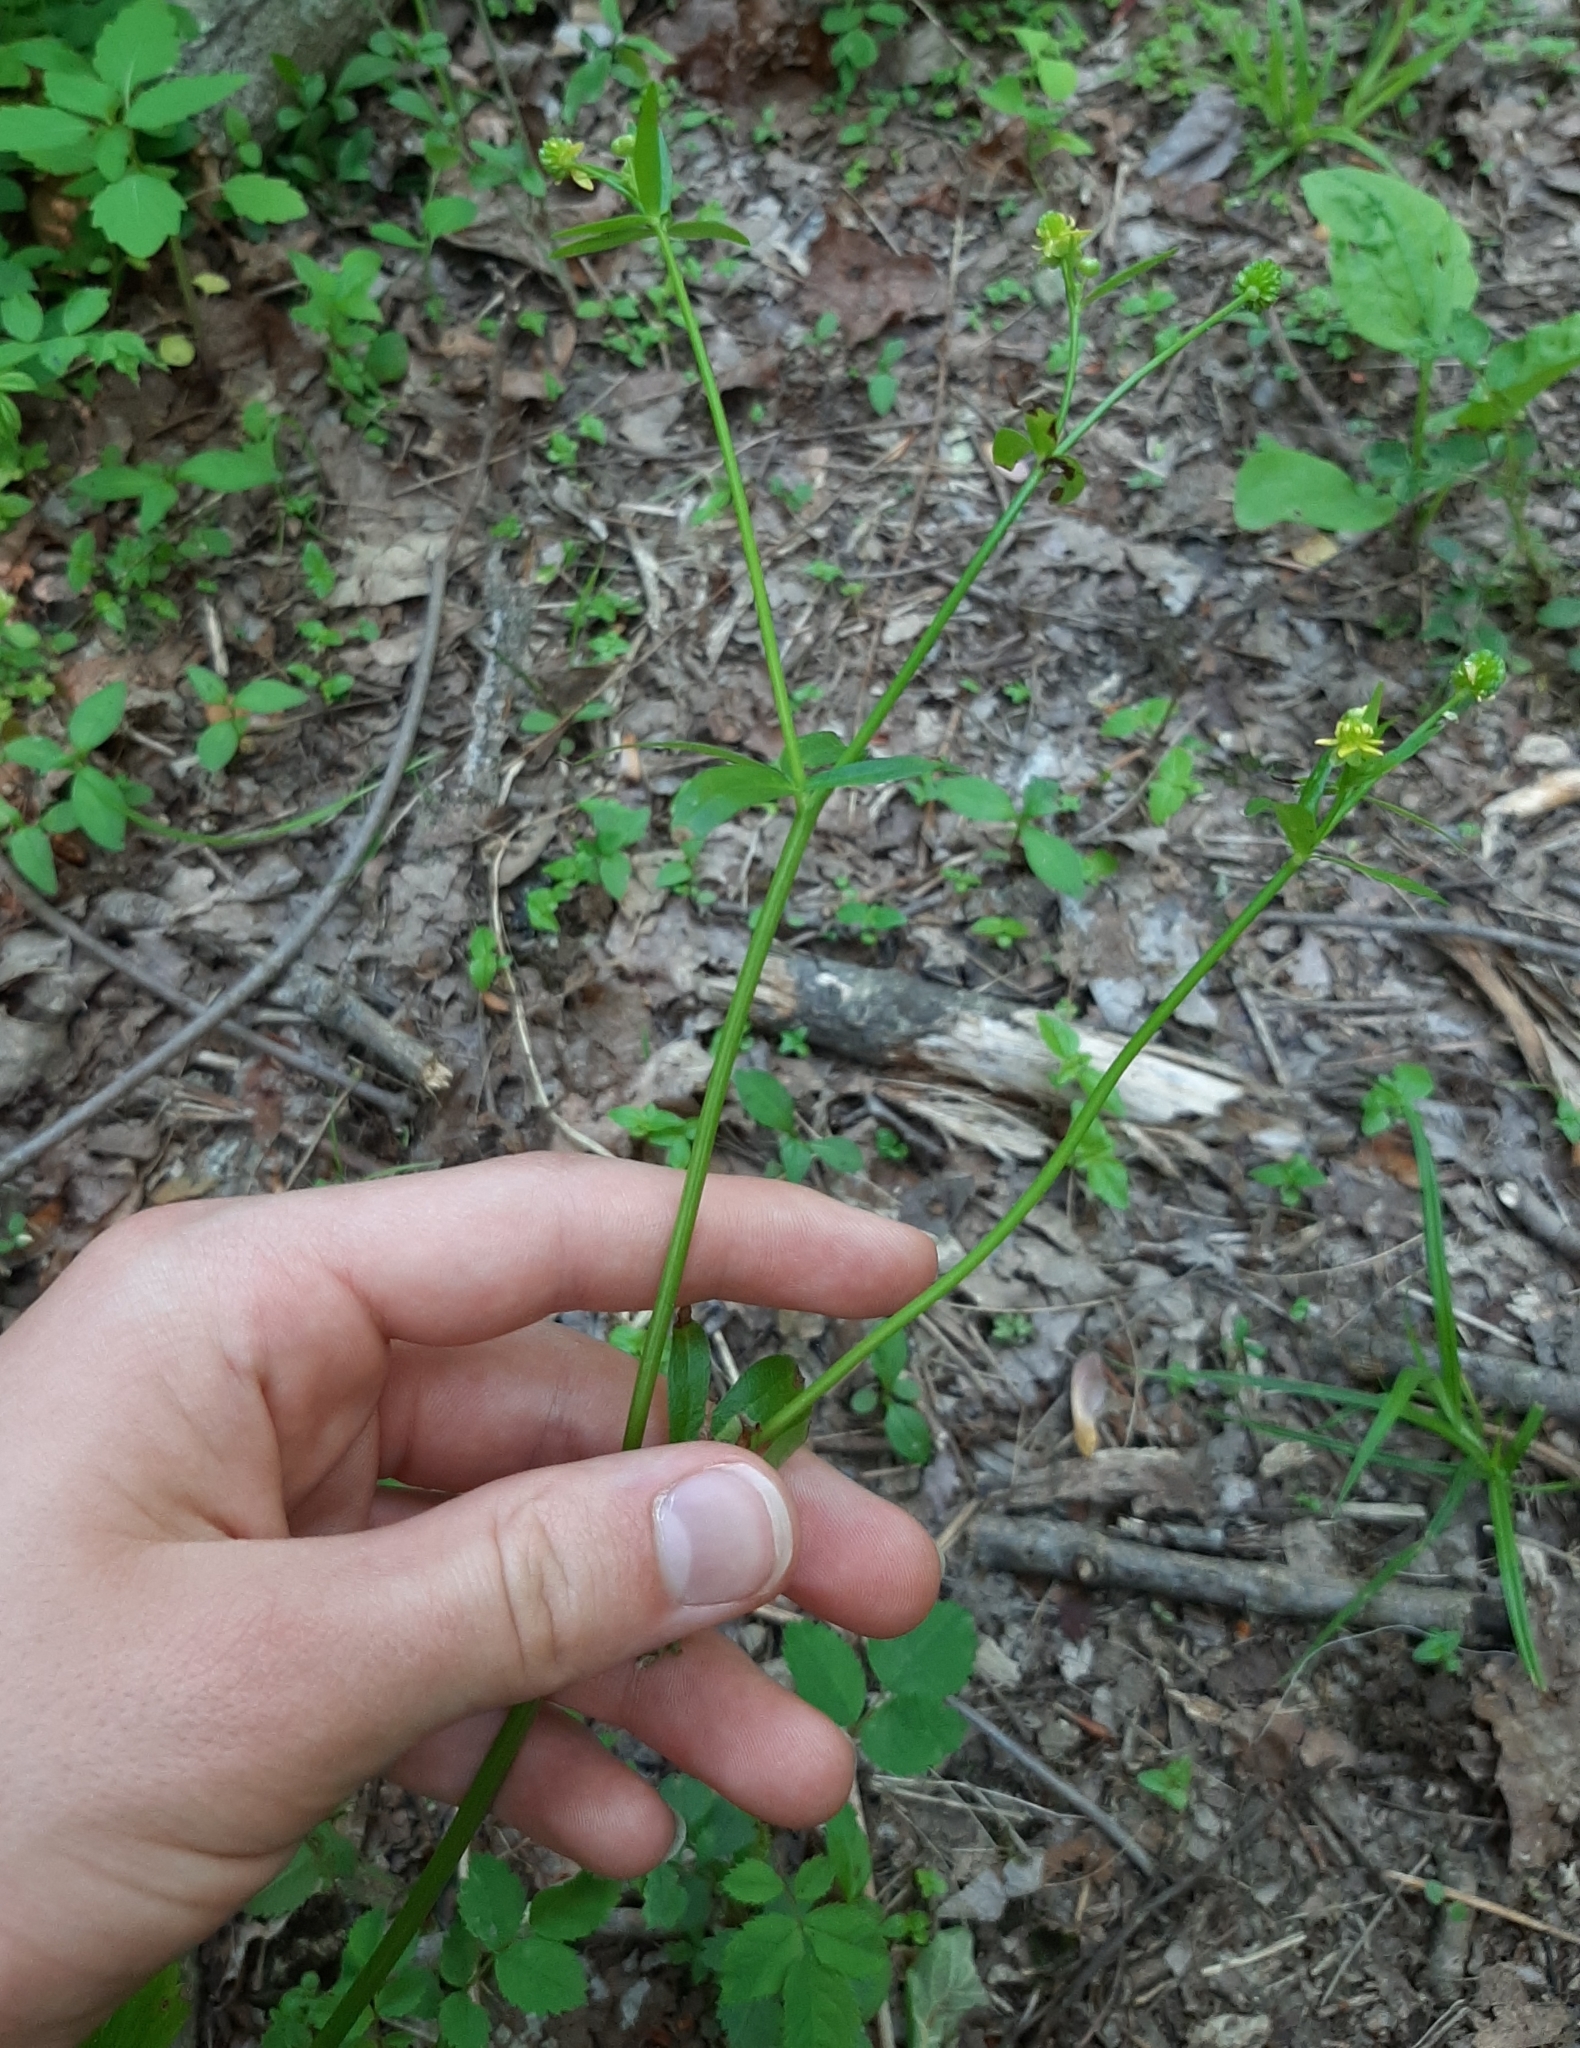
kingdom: Plantae
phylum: Tracheophyta
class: Magnoliopsida
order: Ranunculales
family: Ranunculaceae
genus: Ranunculus
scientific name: Ranunculus abortivus
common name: Early wood buttercup
